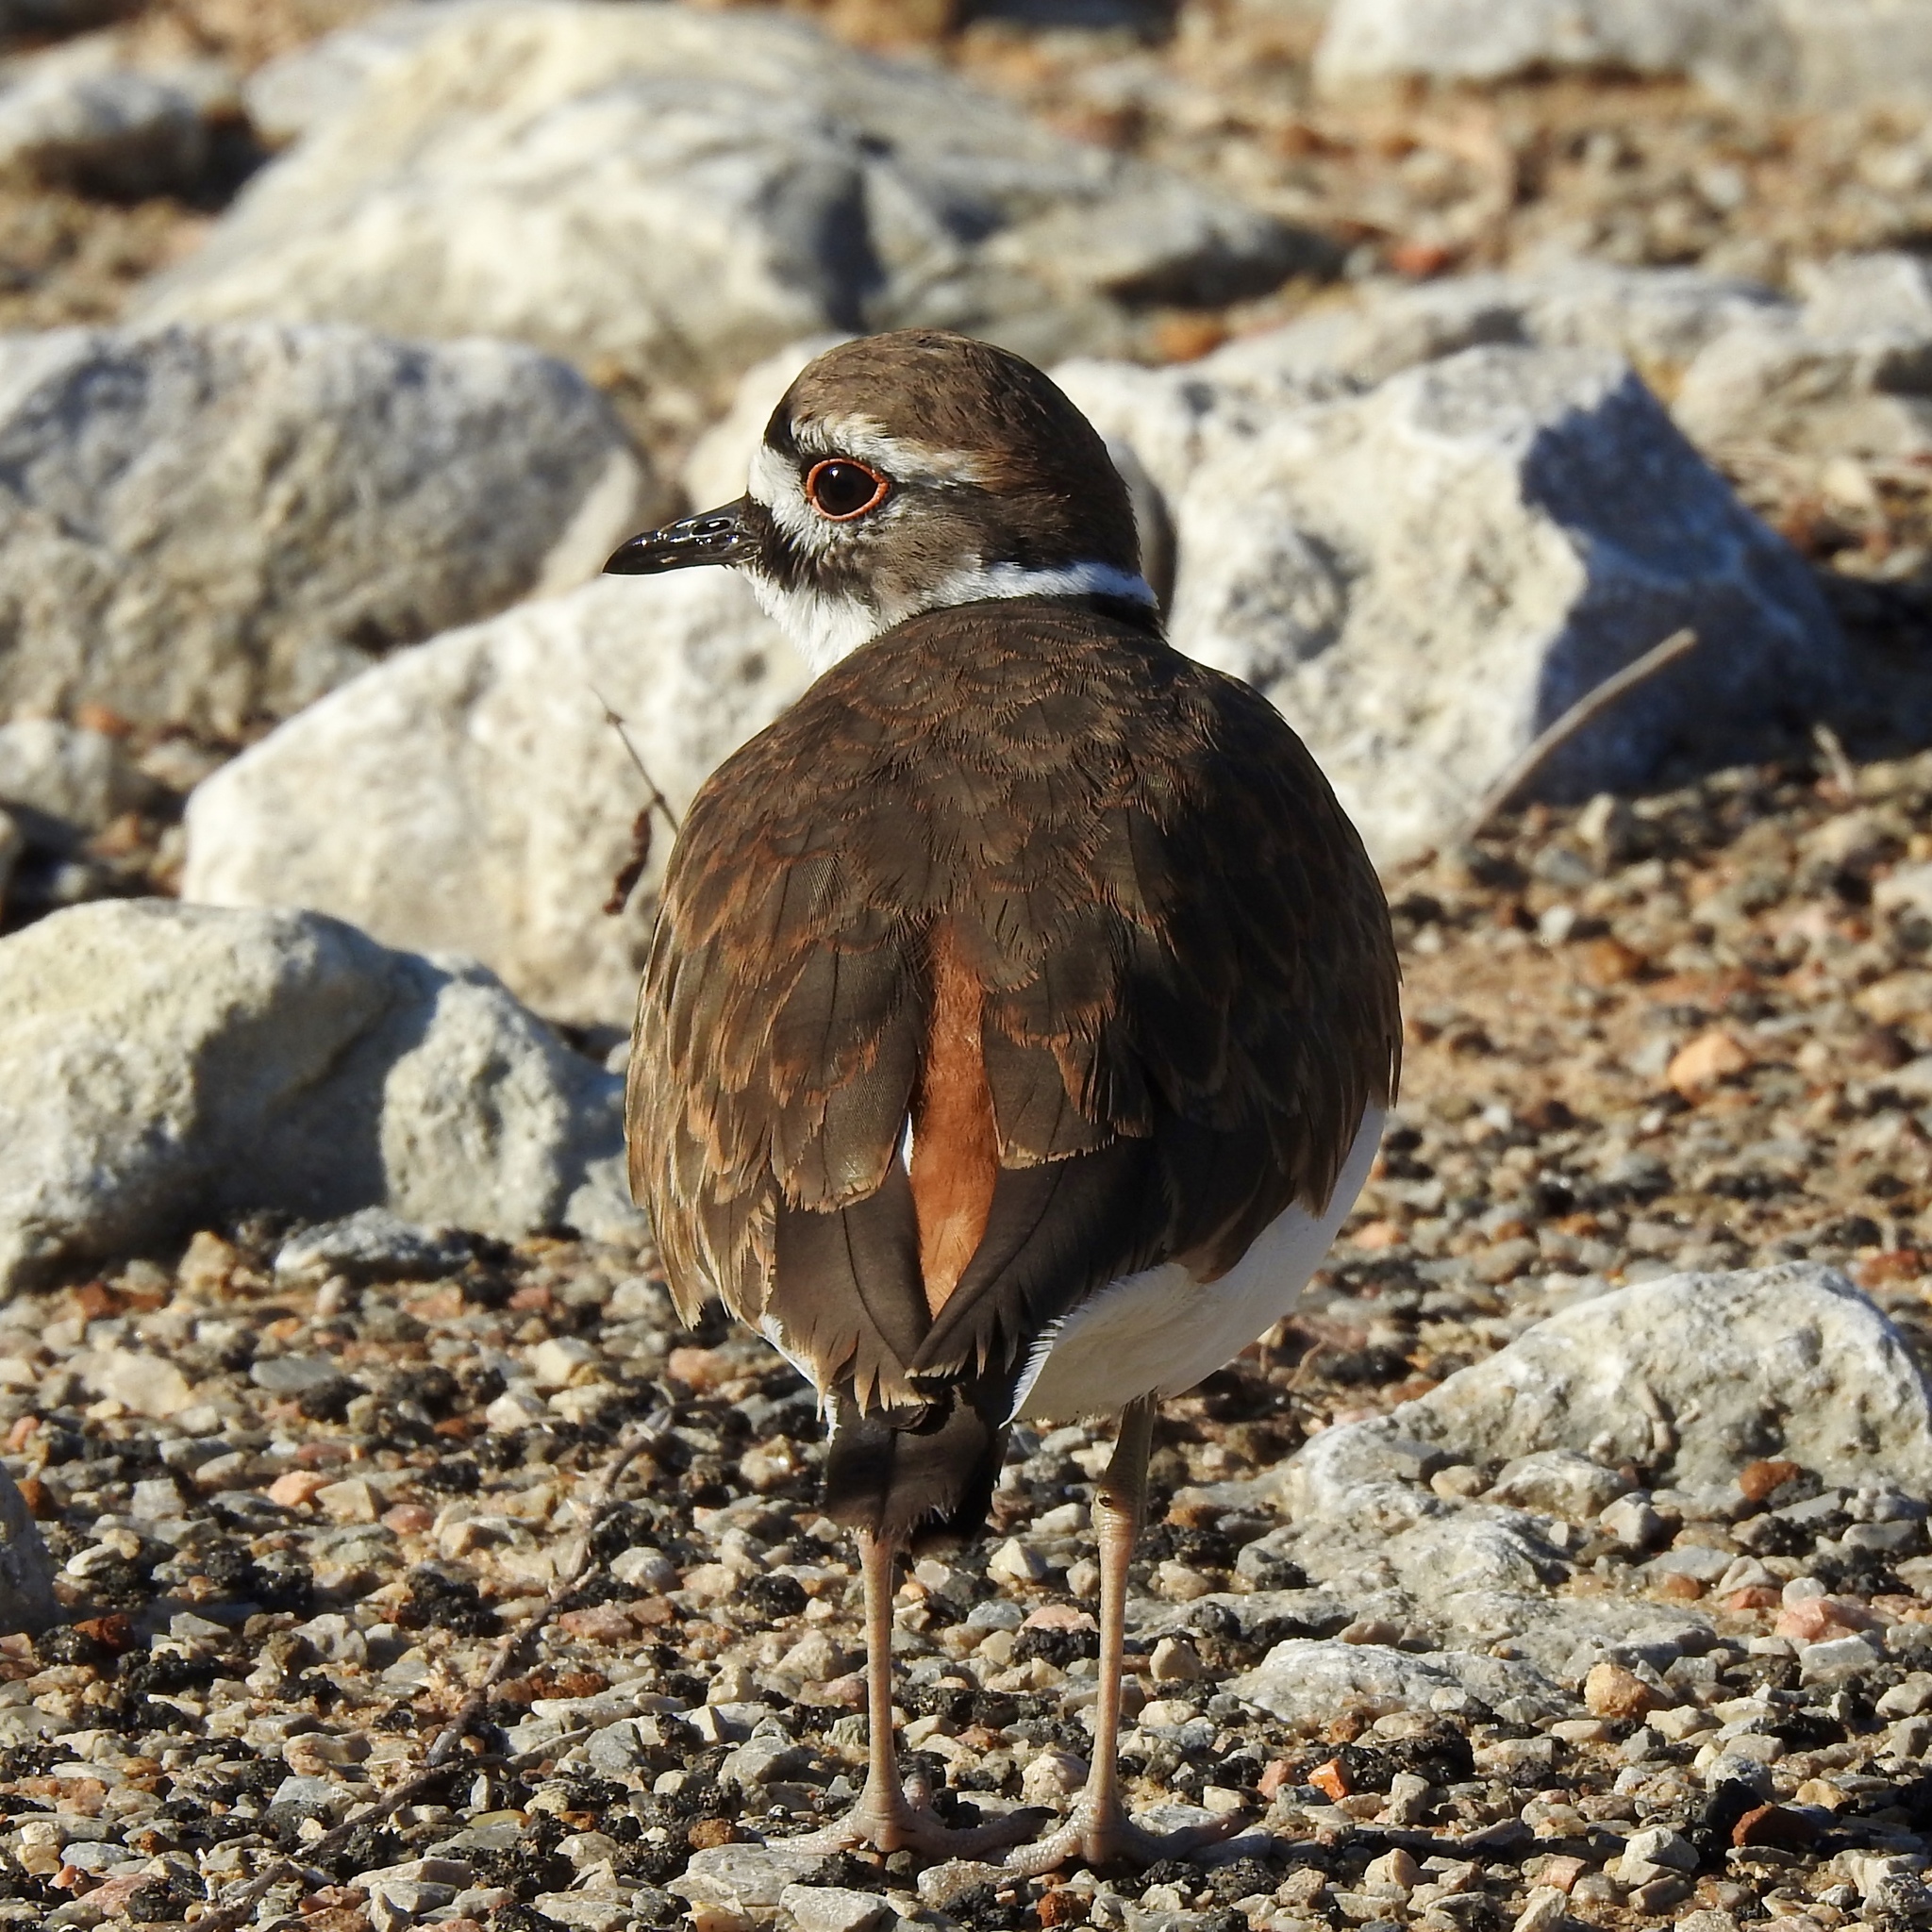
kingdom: Animalia
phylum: Chordata
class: Aves
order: Charadriiformes
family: Charadriidae
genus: Charadrius
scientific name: Charadrius vociferus
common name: Killdeer
